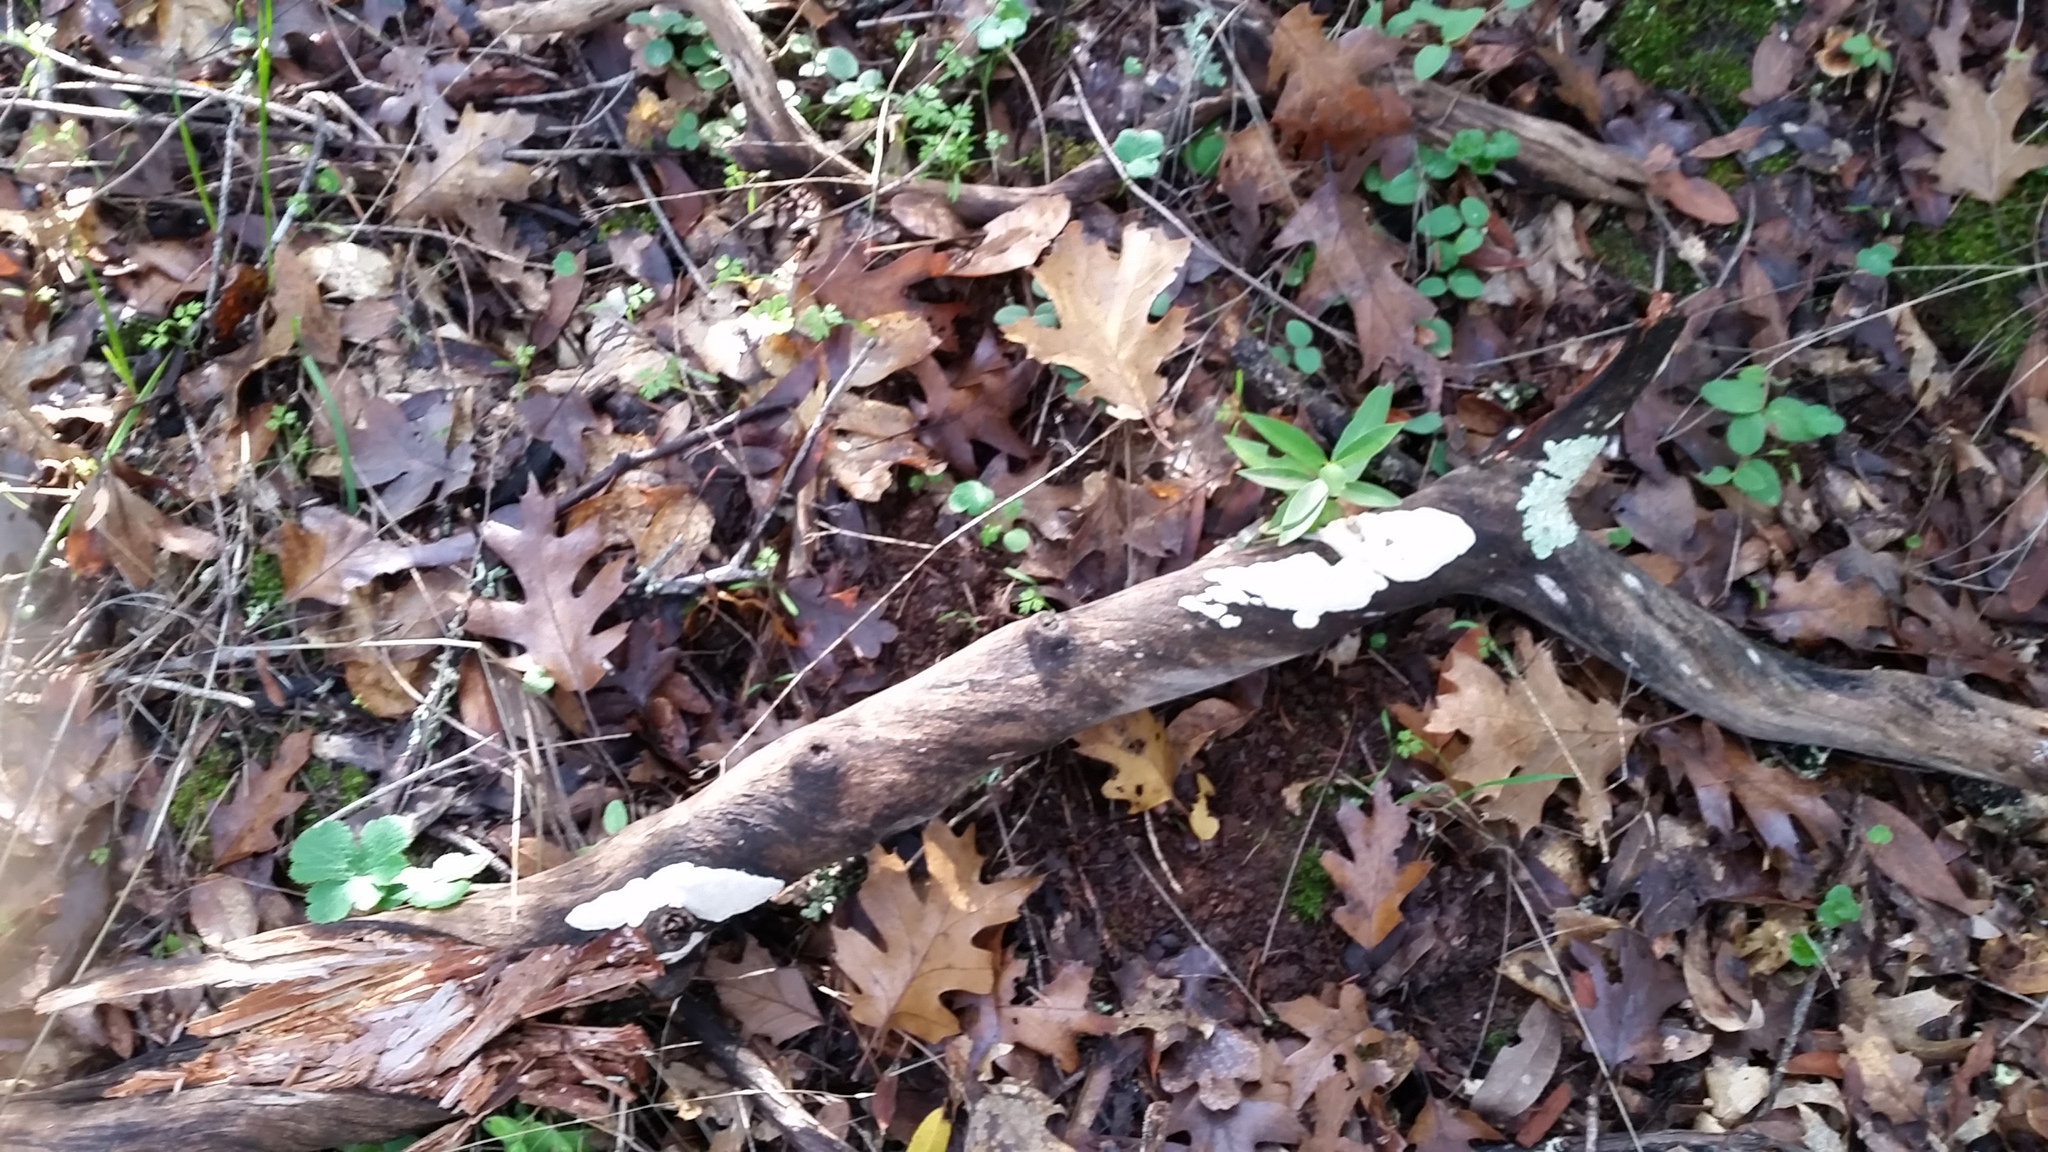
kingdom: Fungi
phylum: Basidiomycota
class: Agaricomycetes
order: Polyporales
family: Fomitopsidaceae
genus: Fomitopsis
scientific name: Fomitopsis
